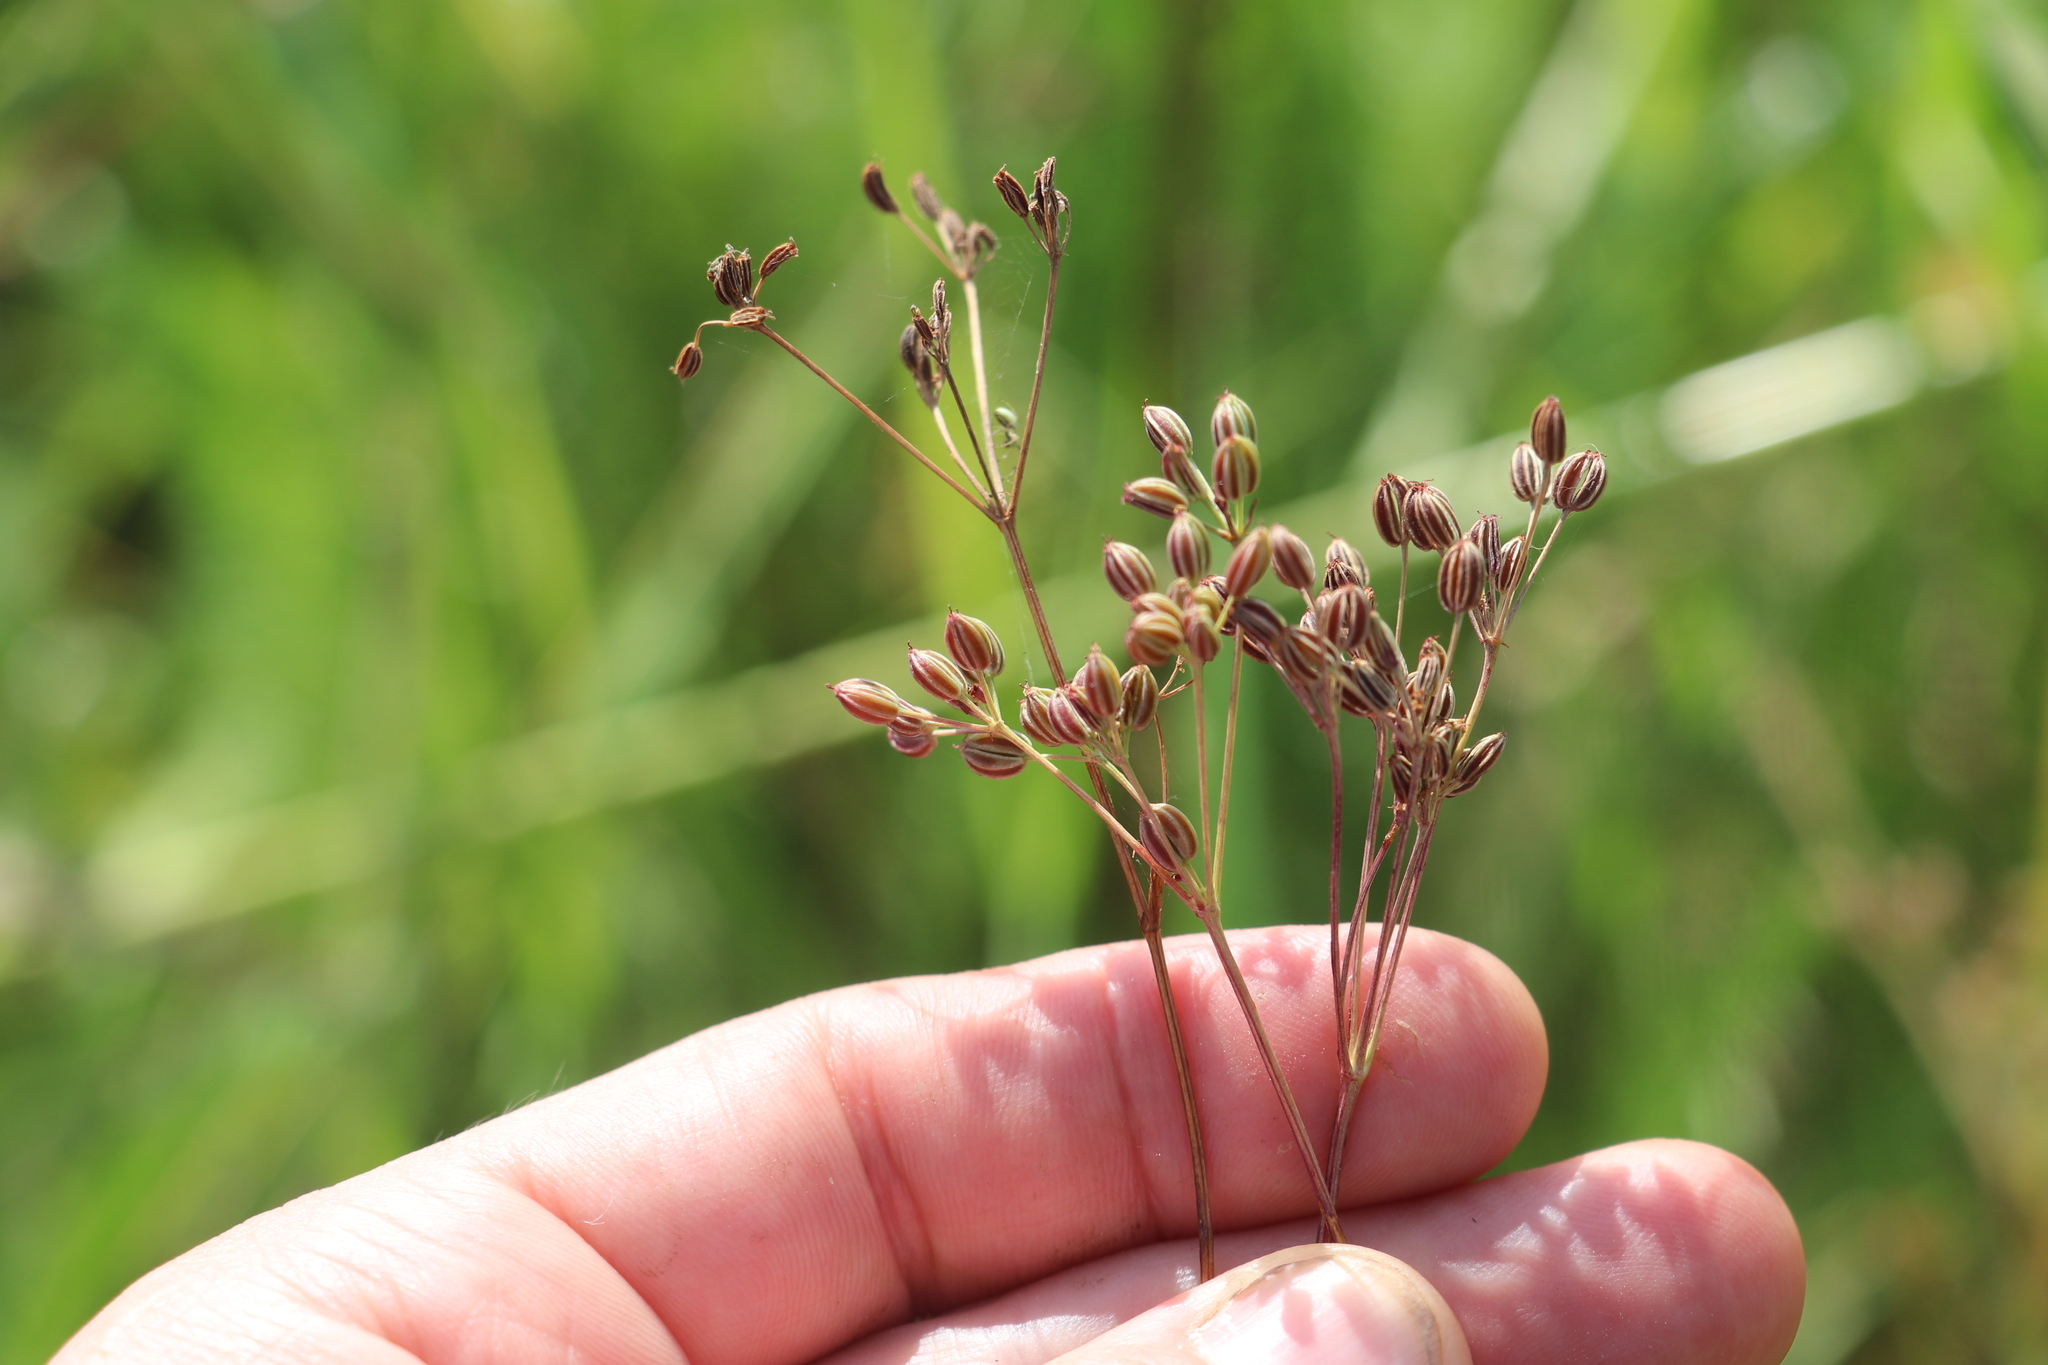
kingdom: Plantae
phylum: Tracheophyta
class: Magnoliopsida
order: Apiales
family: Apiaceae
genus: Carum
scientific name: Carum carvi
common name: Caraway
